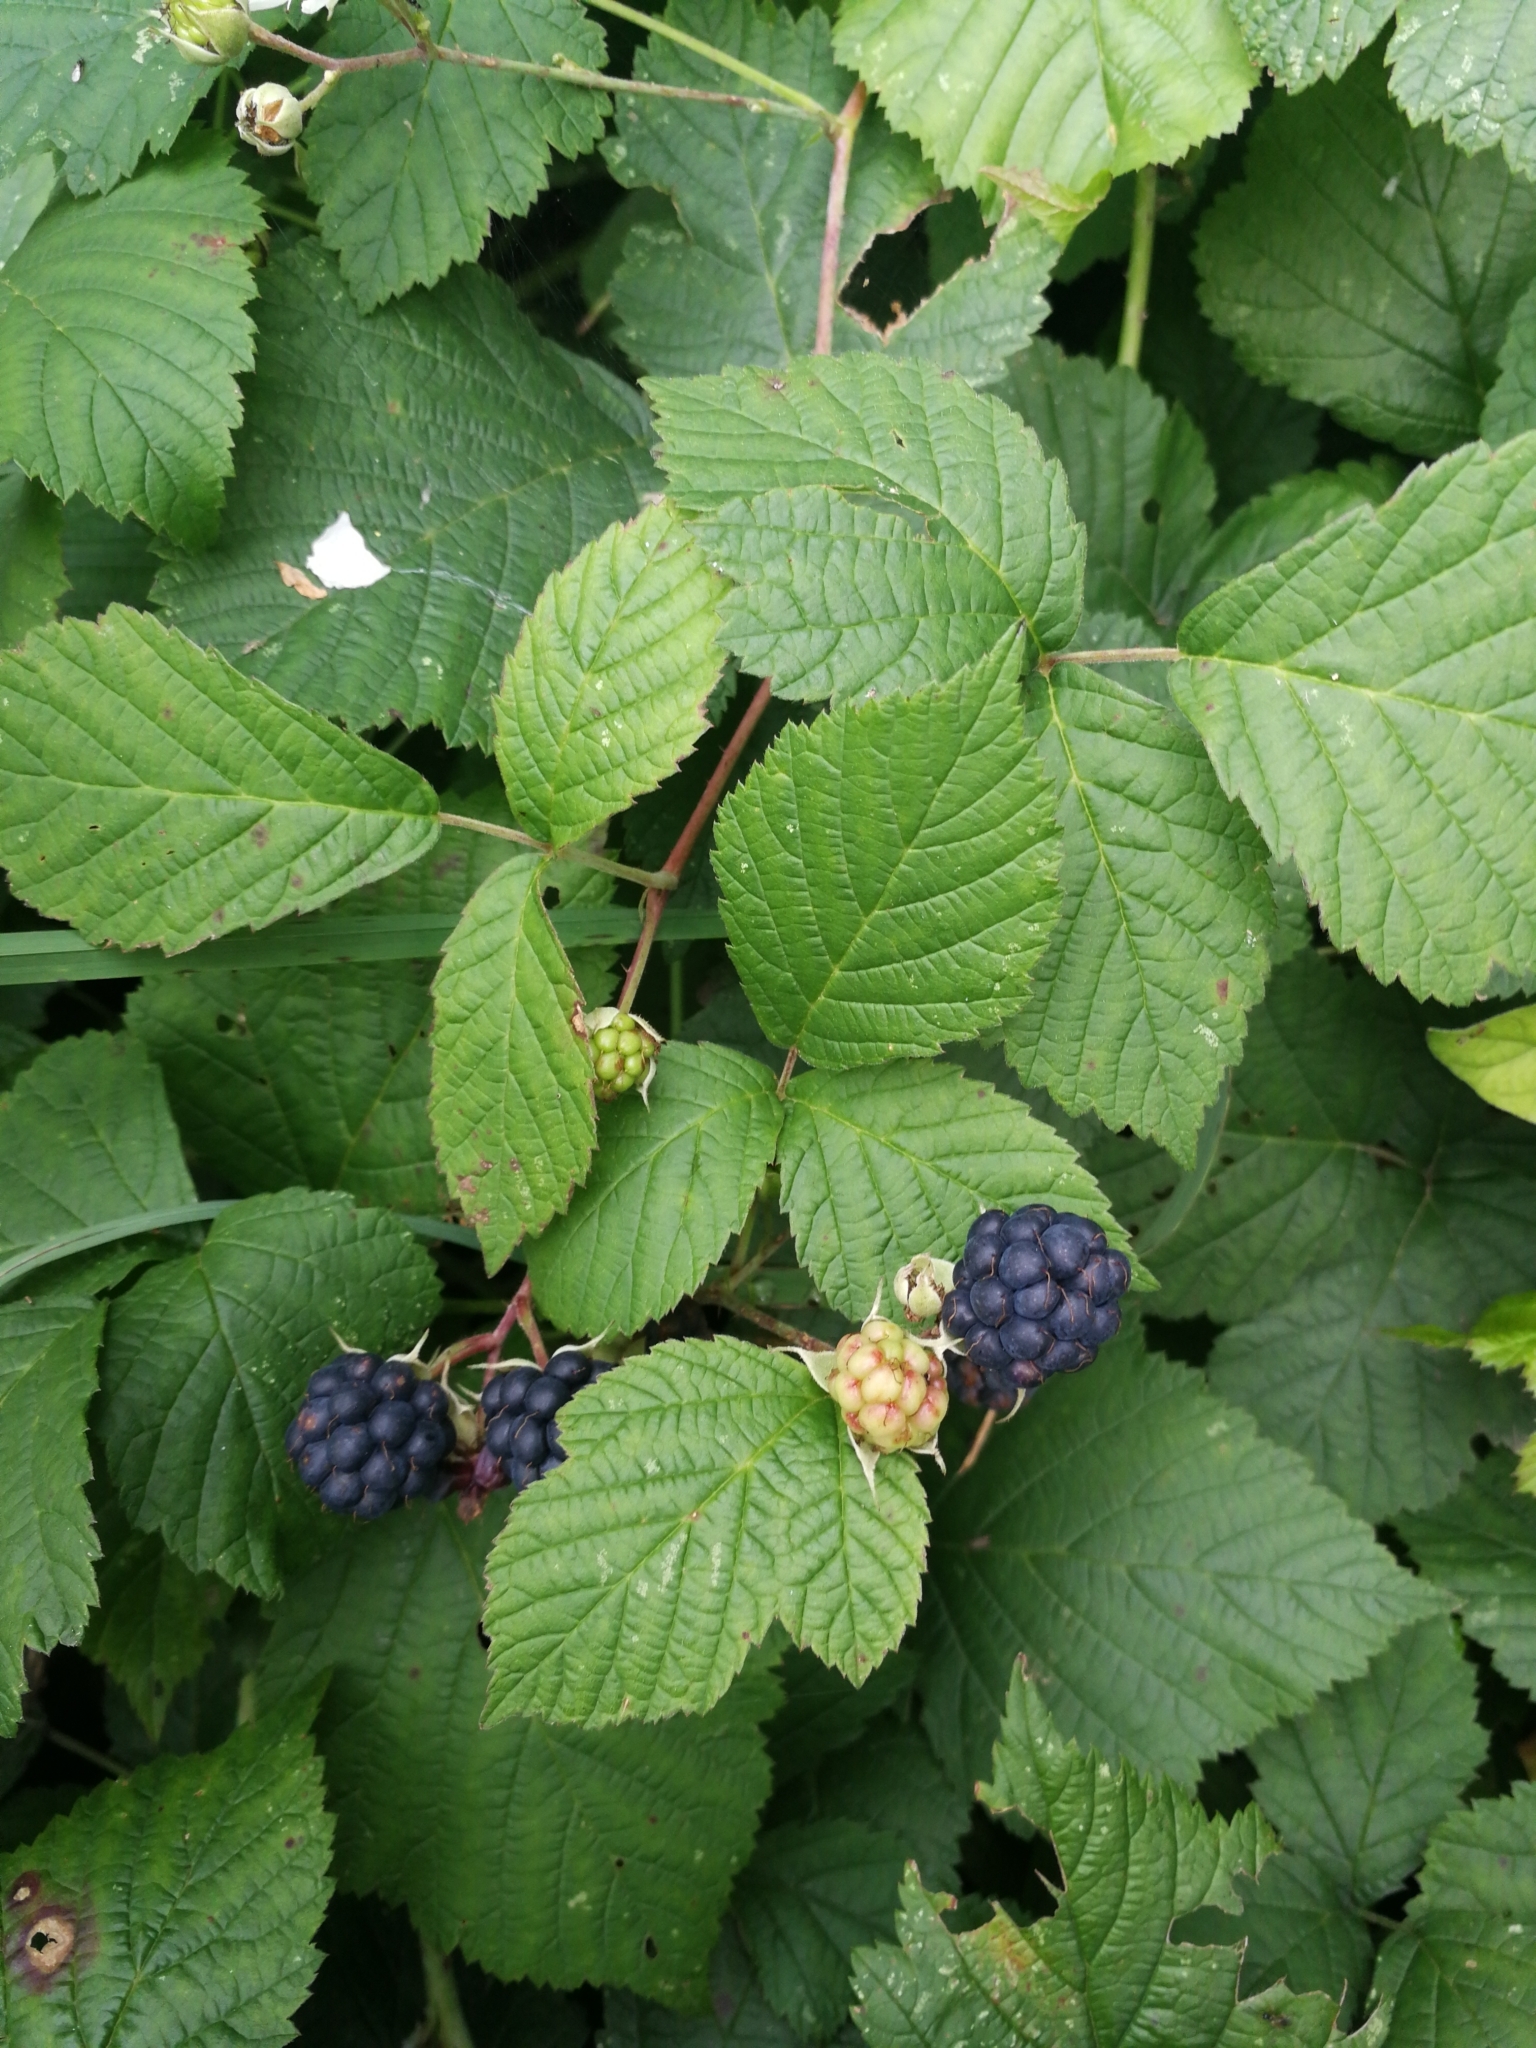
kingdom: Plantae
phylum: Tracheophyta
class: Magnoliopsida
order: Rosales
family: Rosaceae
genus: Rubus
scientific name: Rubus caesius
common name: Dewberry
